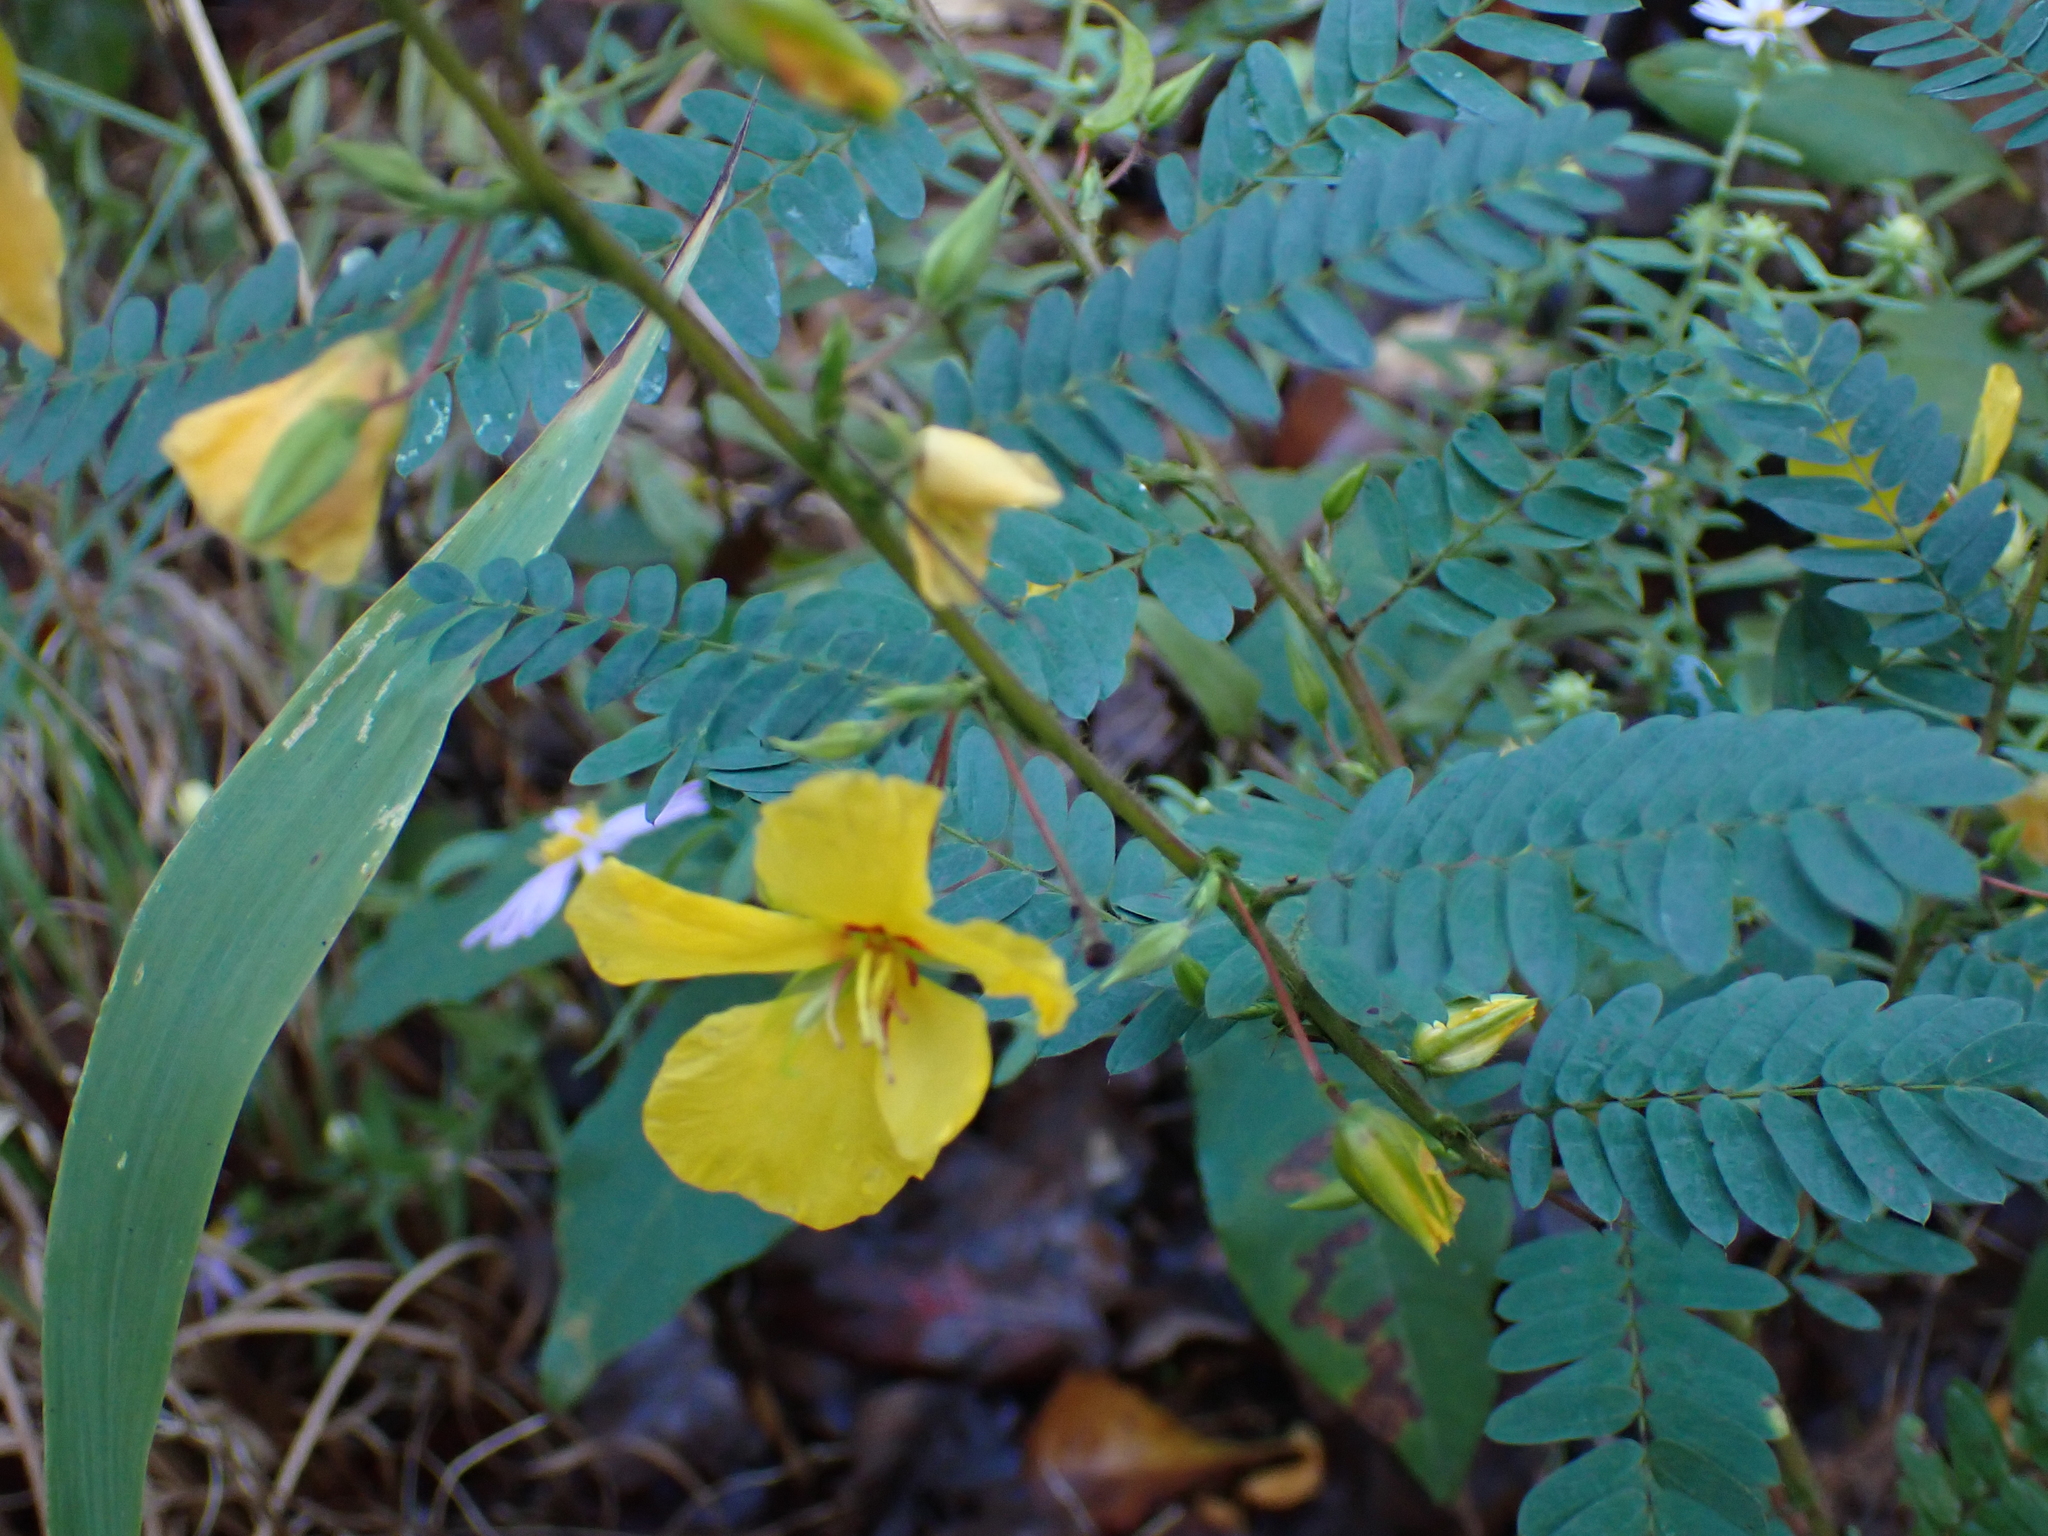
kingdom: Plantae
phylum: Tracheophyta
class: Magnoliopsida
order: Fabales
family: Fabaceae
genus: Chamaecrista
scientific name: Chamaecrista fasciculata
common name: Golden cassia
